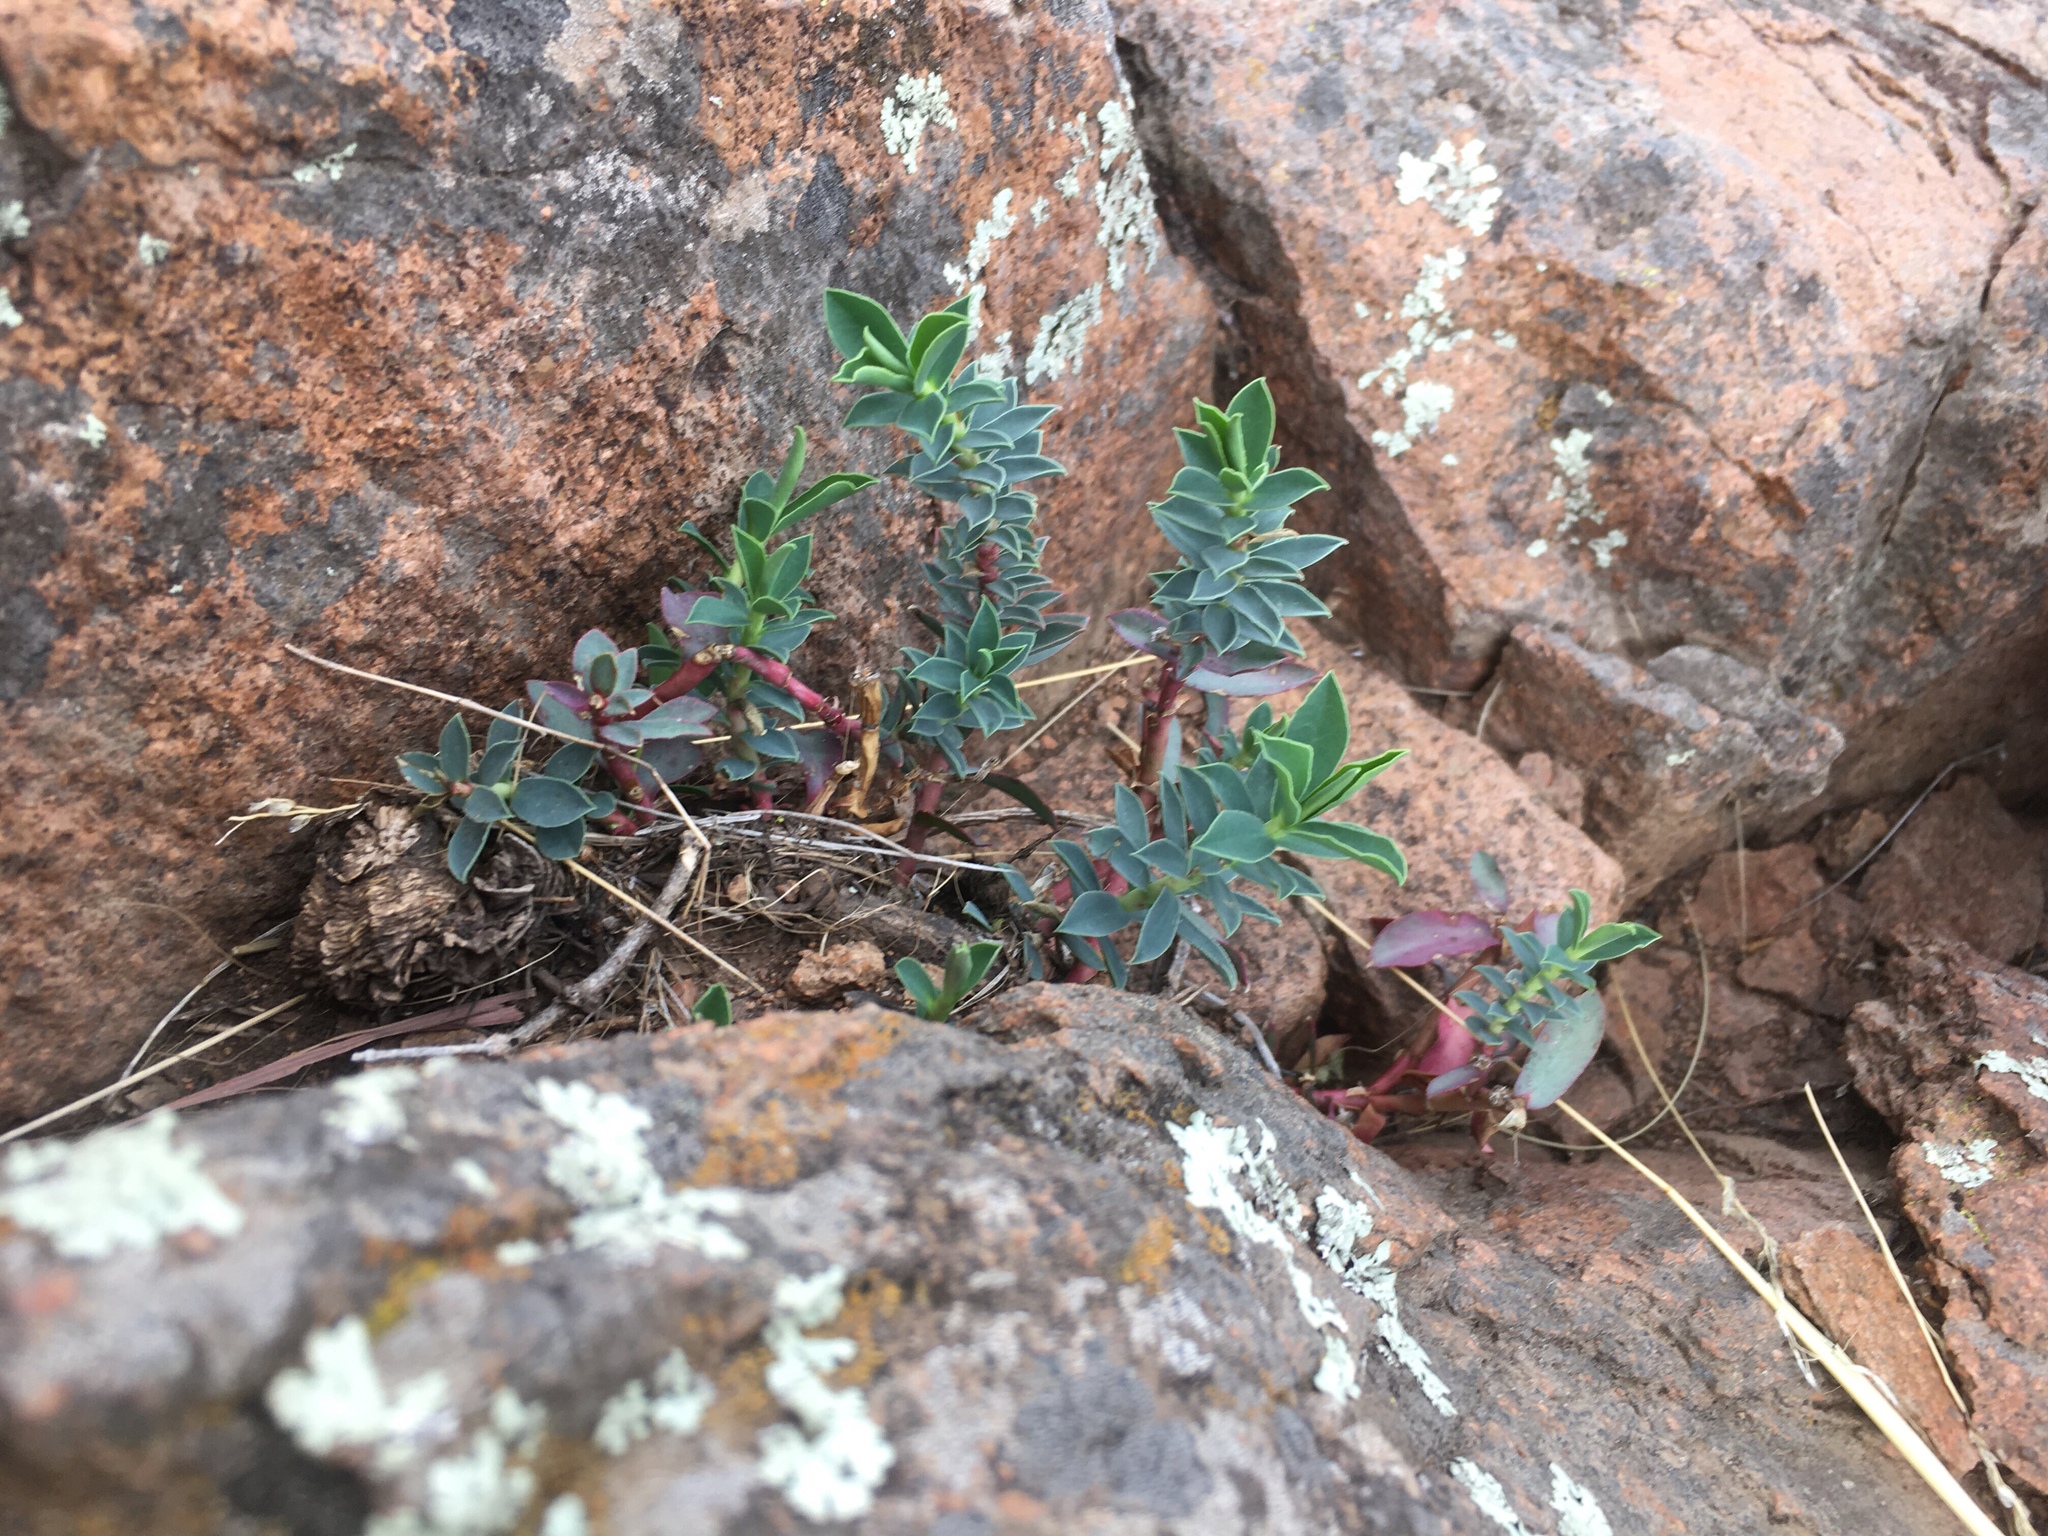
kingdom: Plantae
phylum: Tracheophyta
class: Magnoliopsida
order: Malpighiales
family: Euphorbiaceae
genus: Euphorbia
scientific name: Euphorbia portulacoides
